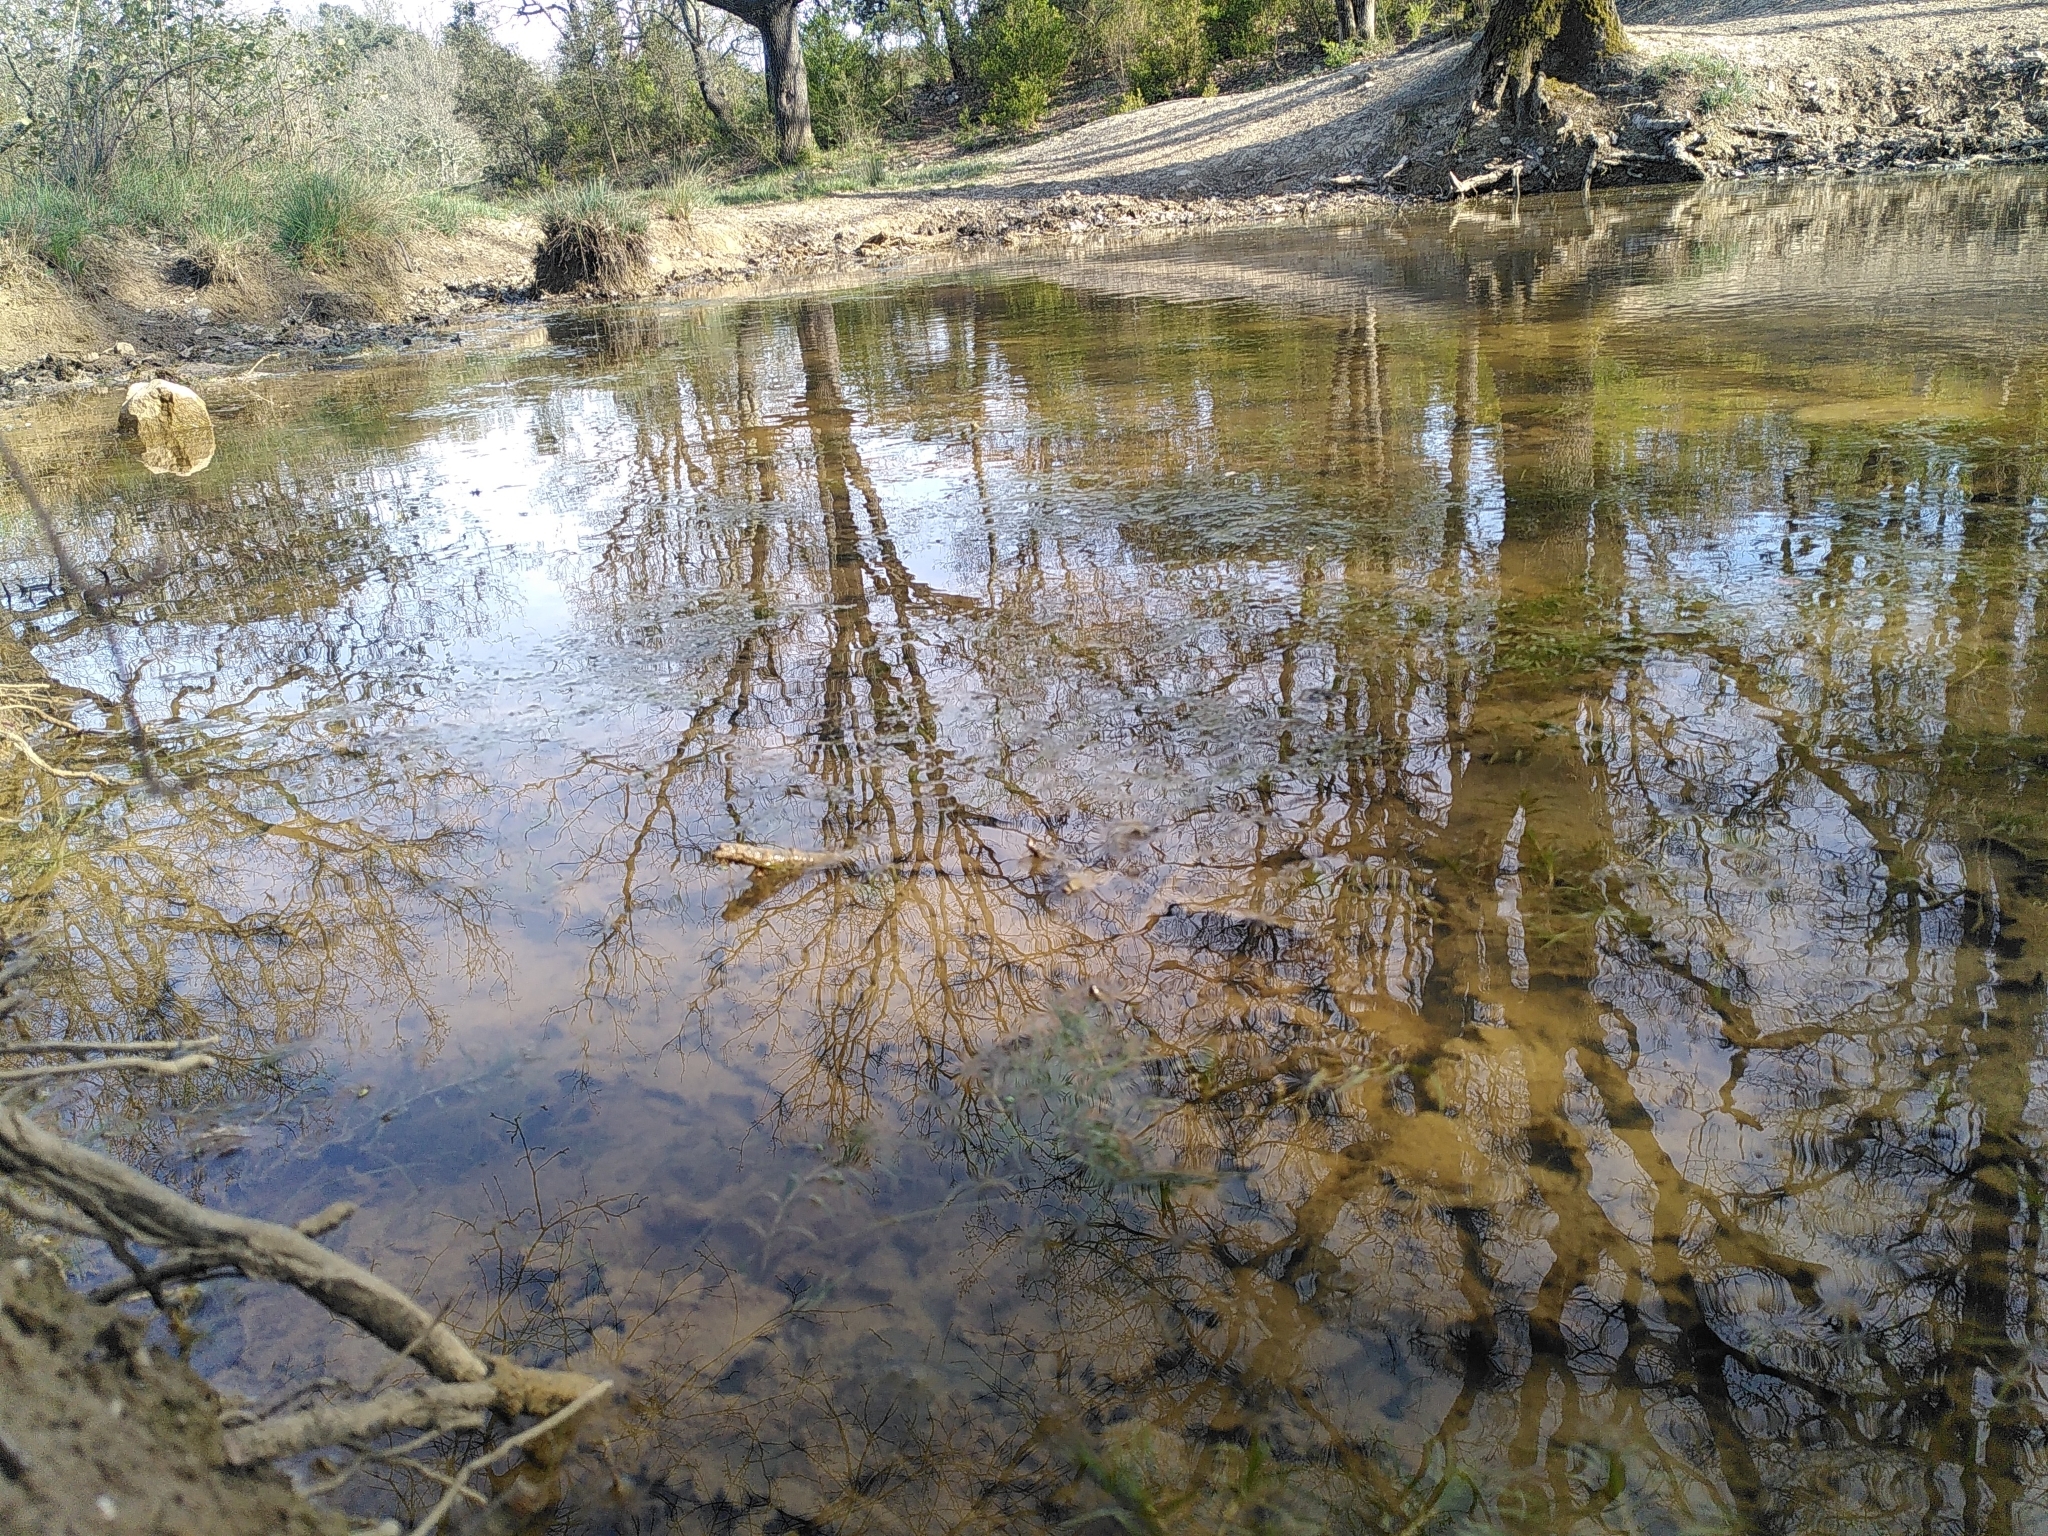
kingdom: Plantae
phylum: Tracheophyta
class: Liliopsida
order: Alismatales
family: Potamogetonaceae
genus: Groenlandia
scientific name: Groenlandia densa
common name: Opposite-leaved pondweed
